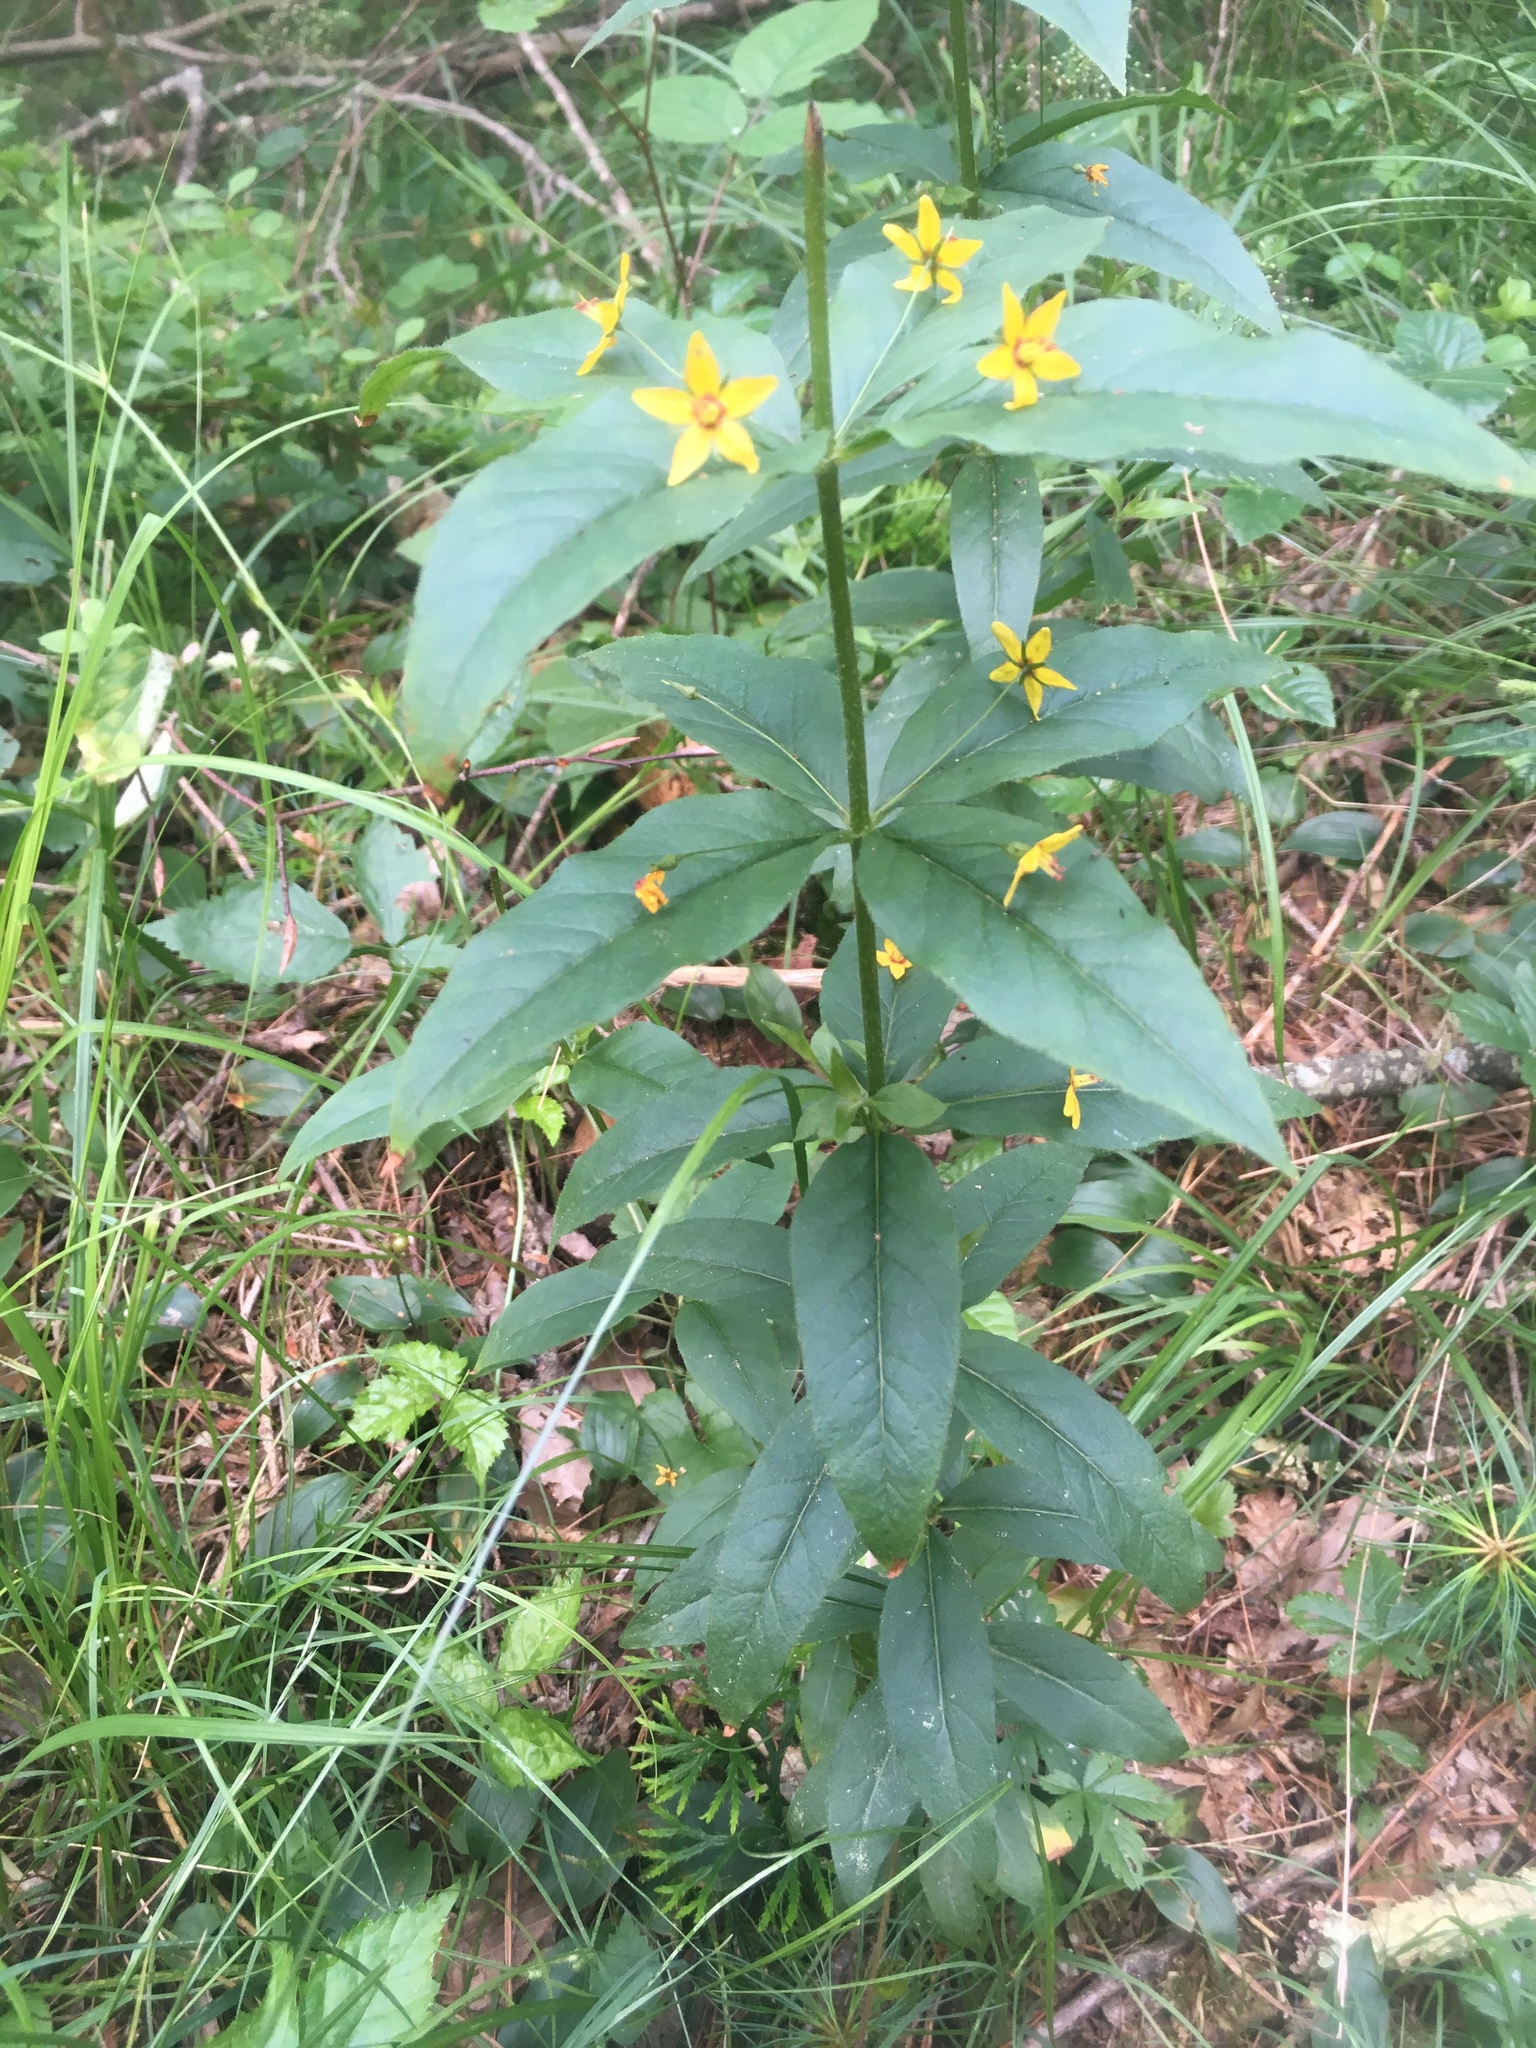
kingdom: Plantae
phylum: Tracheophyta
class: Magnoliopsida
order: Ericales
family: Primulaceae
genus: Lysimachia
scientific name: Lysimachia quadrifolia
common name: Whorled loosestrife
